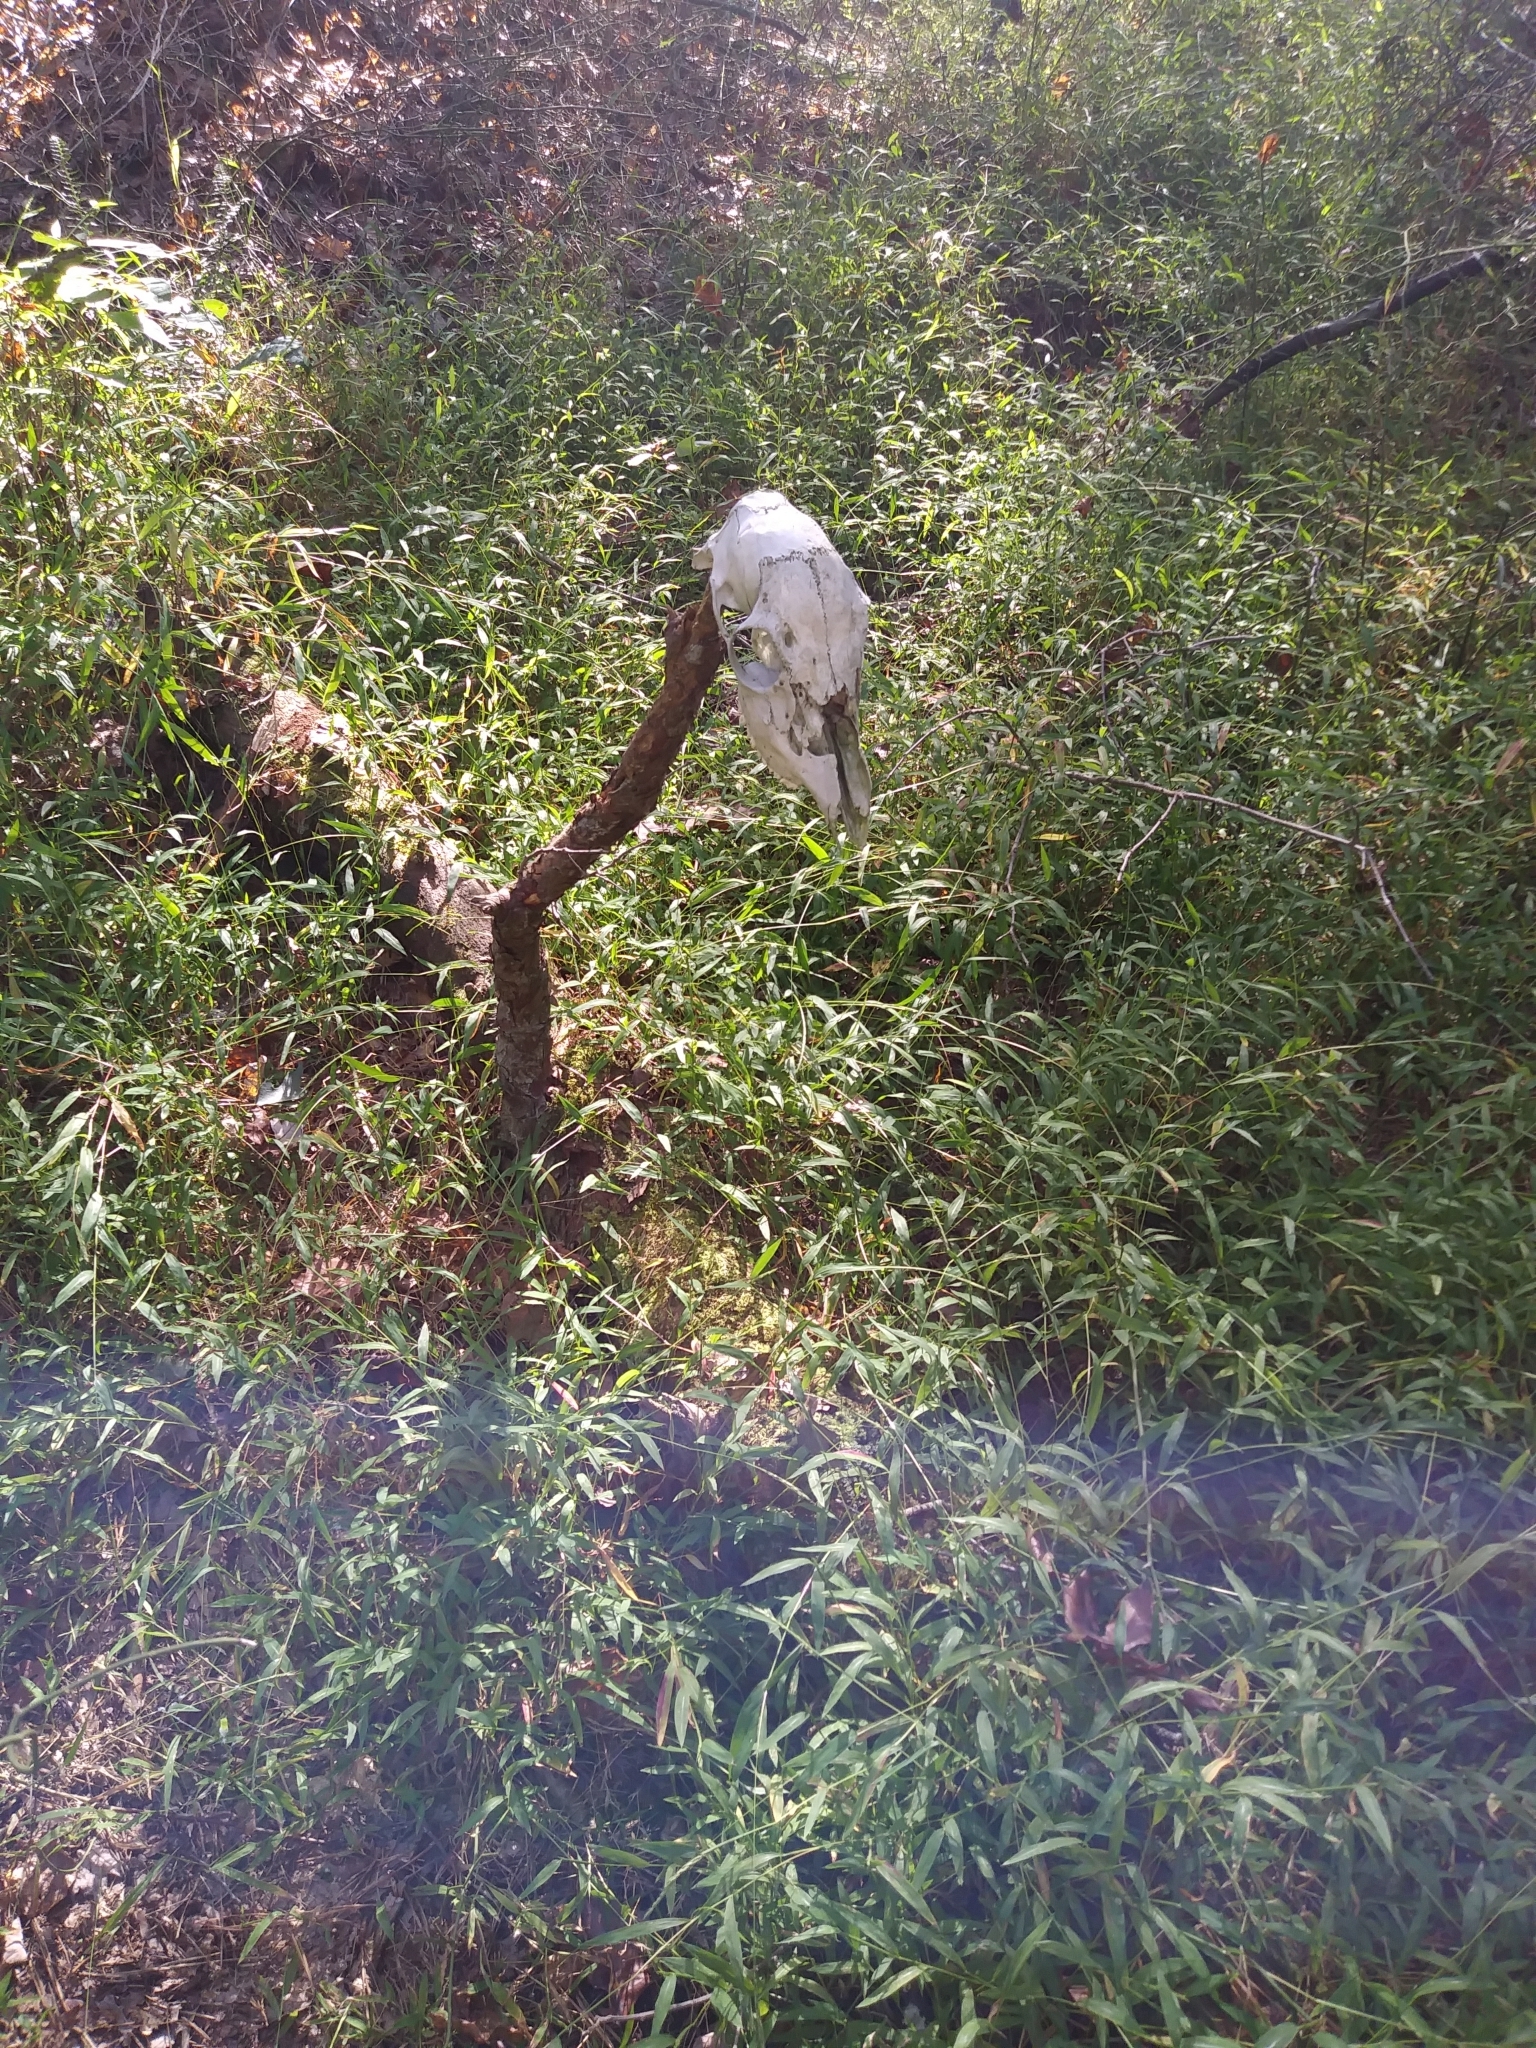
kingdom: Animalia
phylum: Chordata
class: Mammalia
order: Artiodactyla
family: Cervidae
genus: Odocoileus
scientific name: Odocoileus virginianus
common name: White-tailed deer
